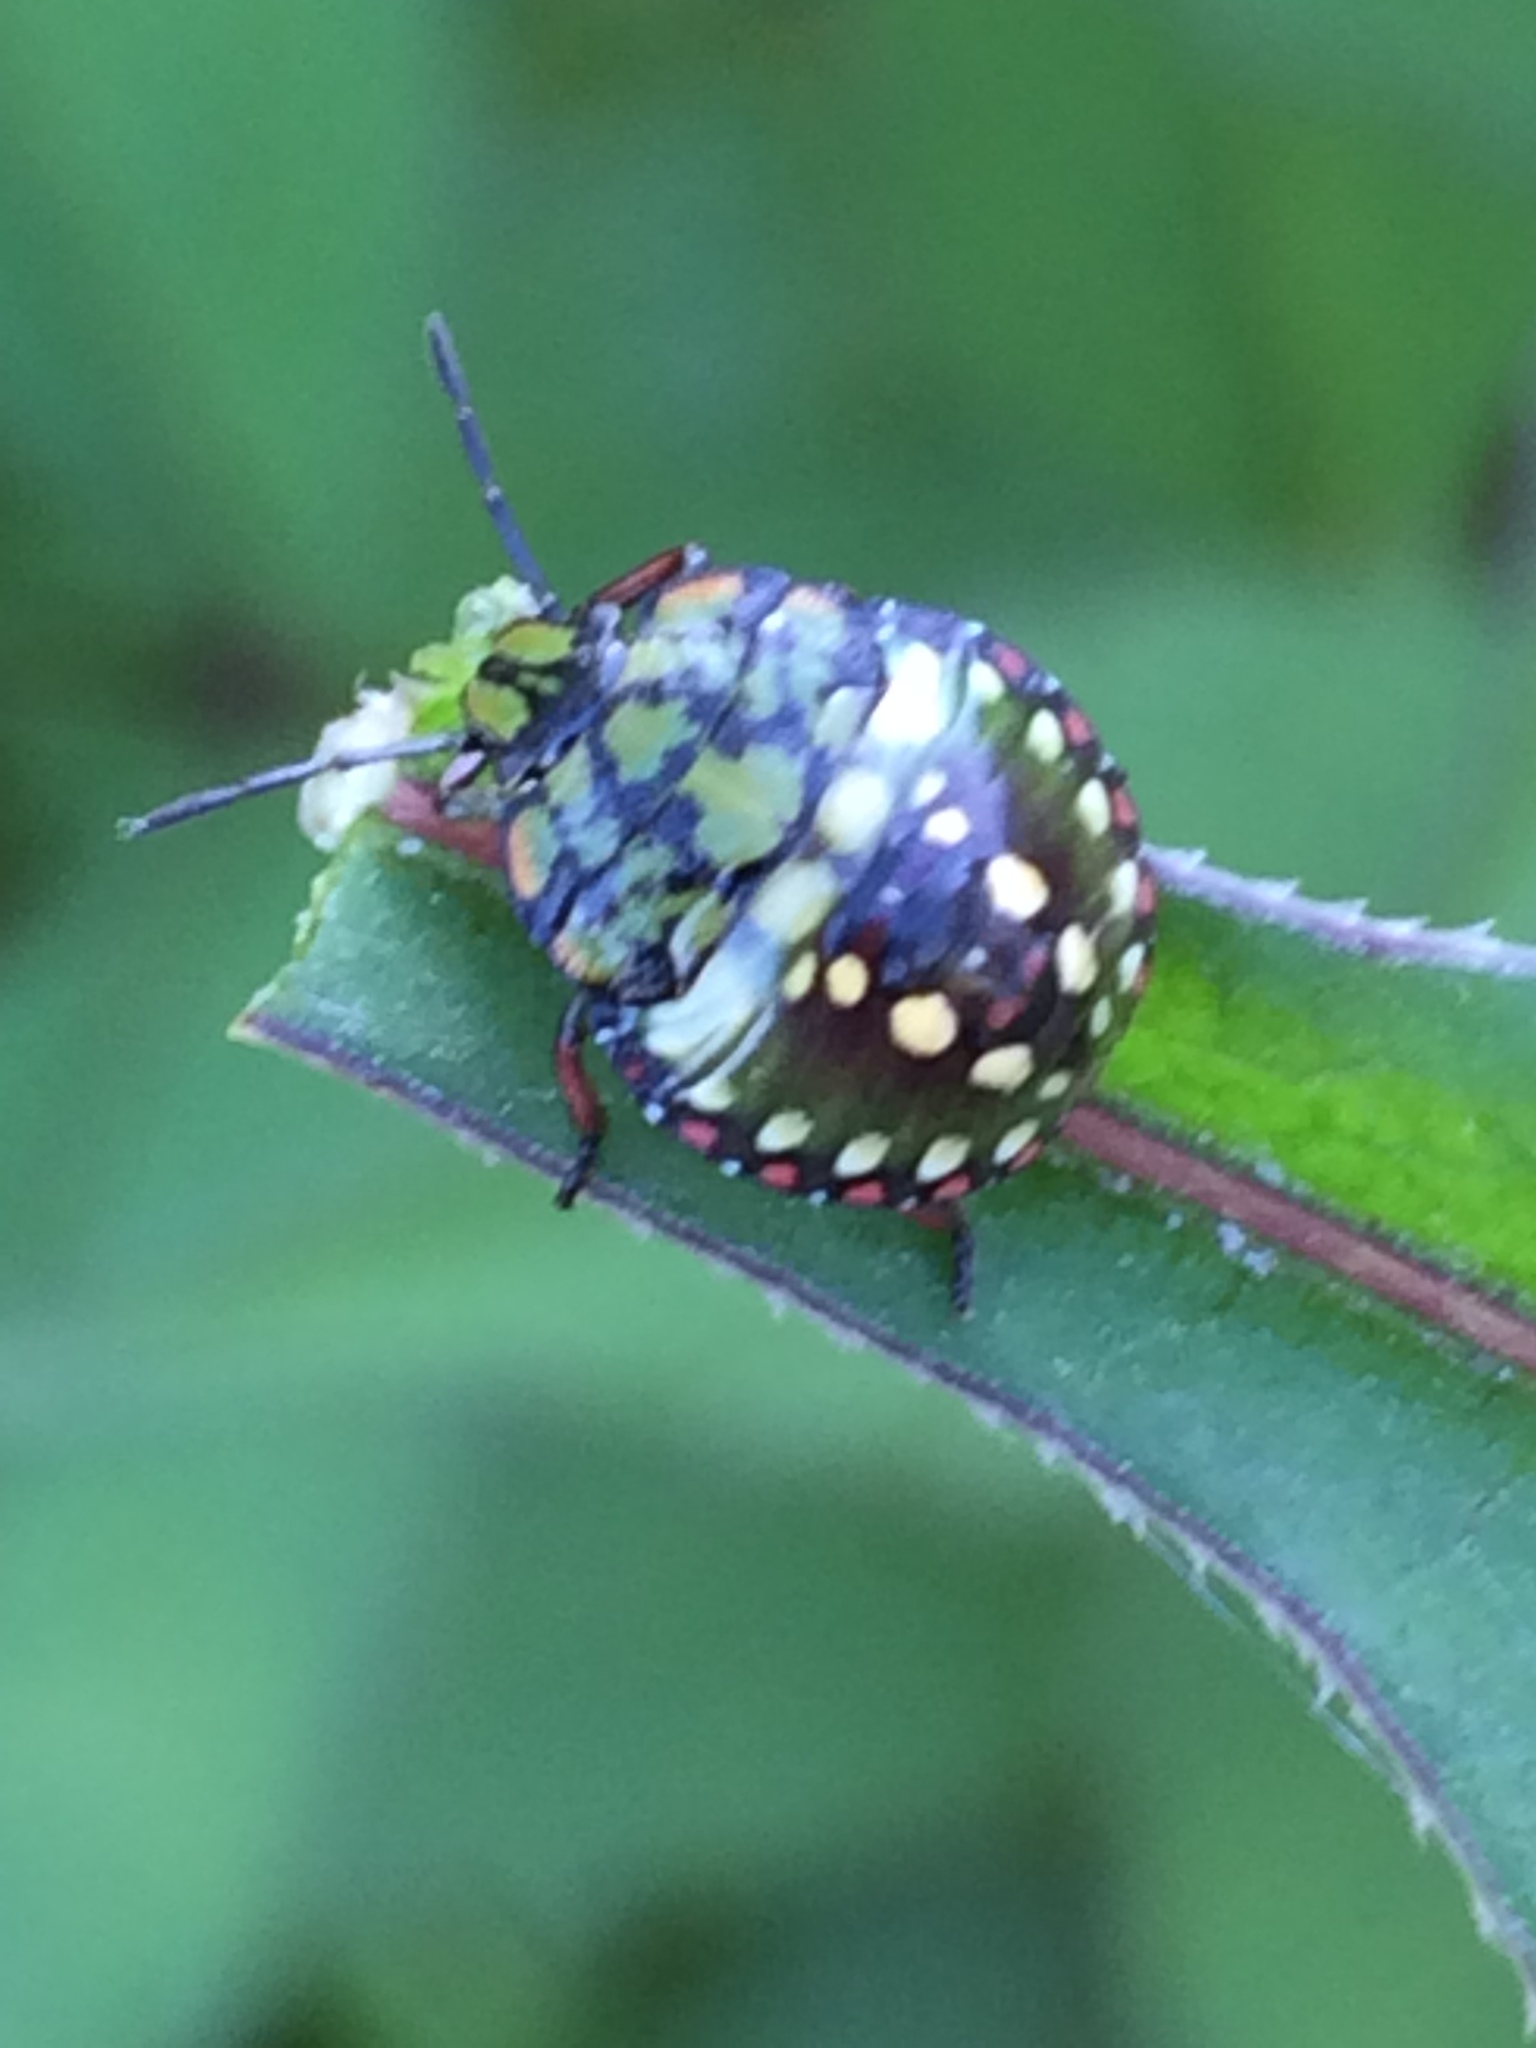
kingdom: Animalia
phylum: Arthropoda
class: Insecta
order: Hemiptera
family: Pentatomidae
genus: Nezara
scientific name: Nezara viridula
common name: Southern green stink bug
